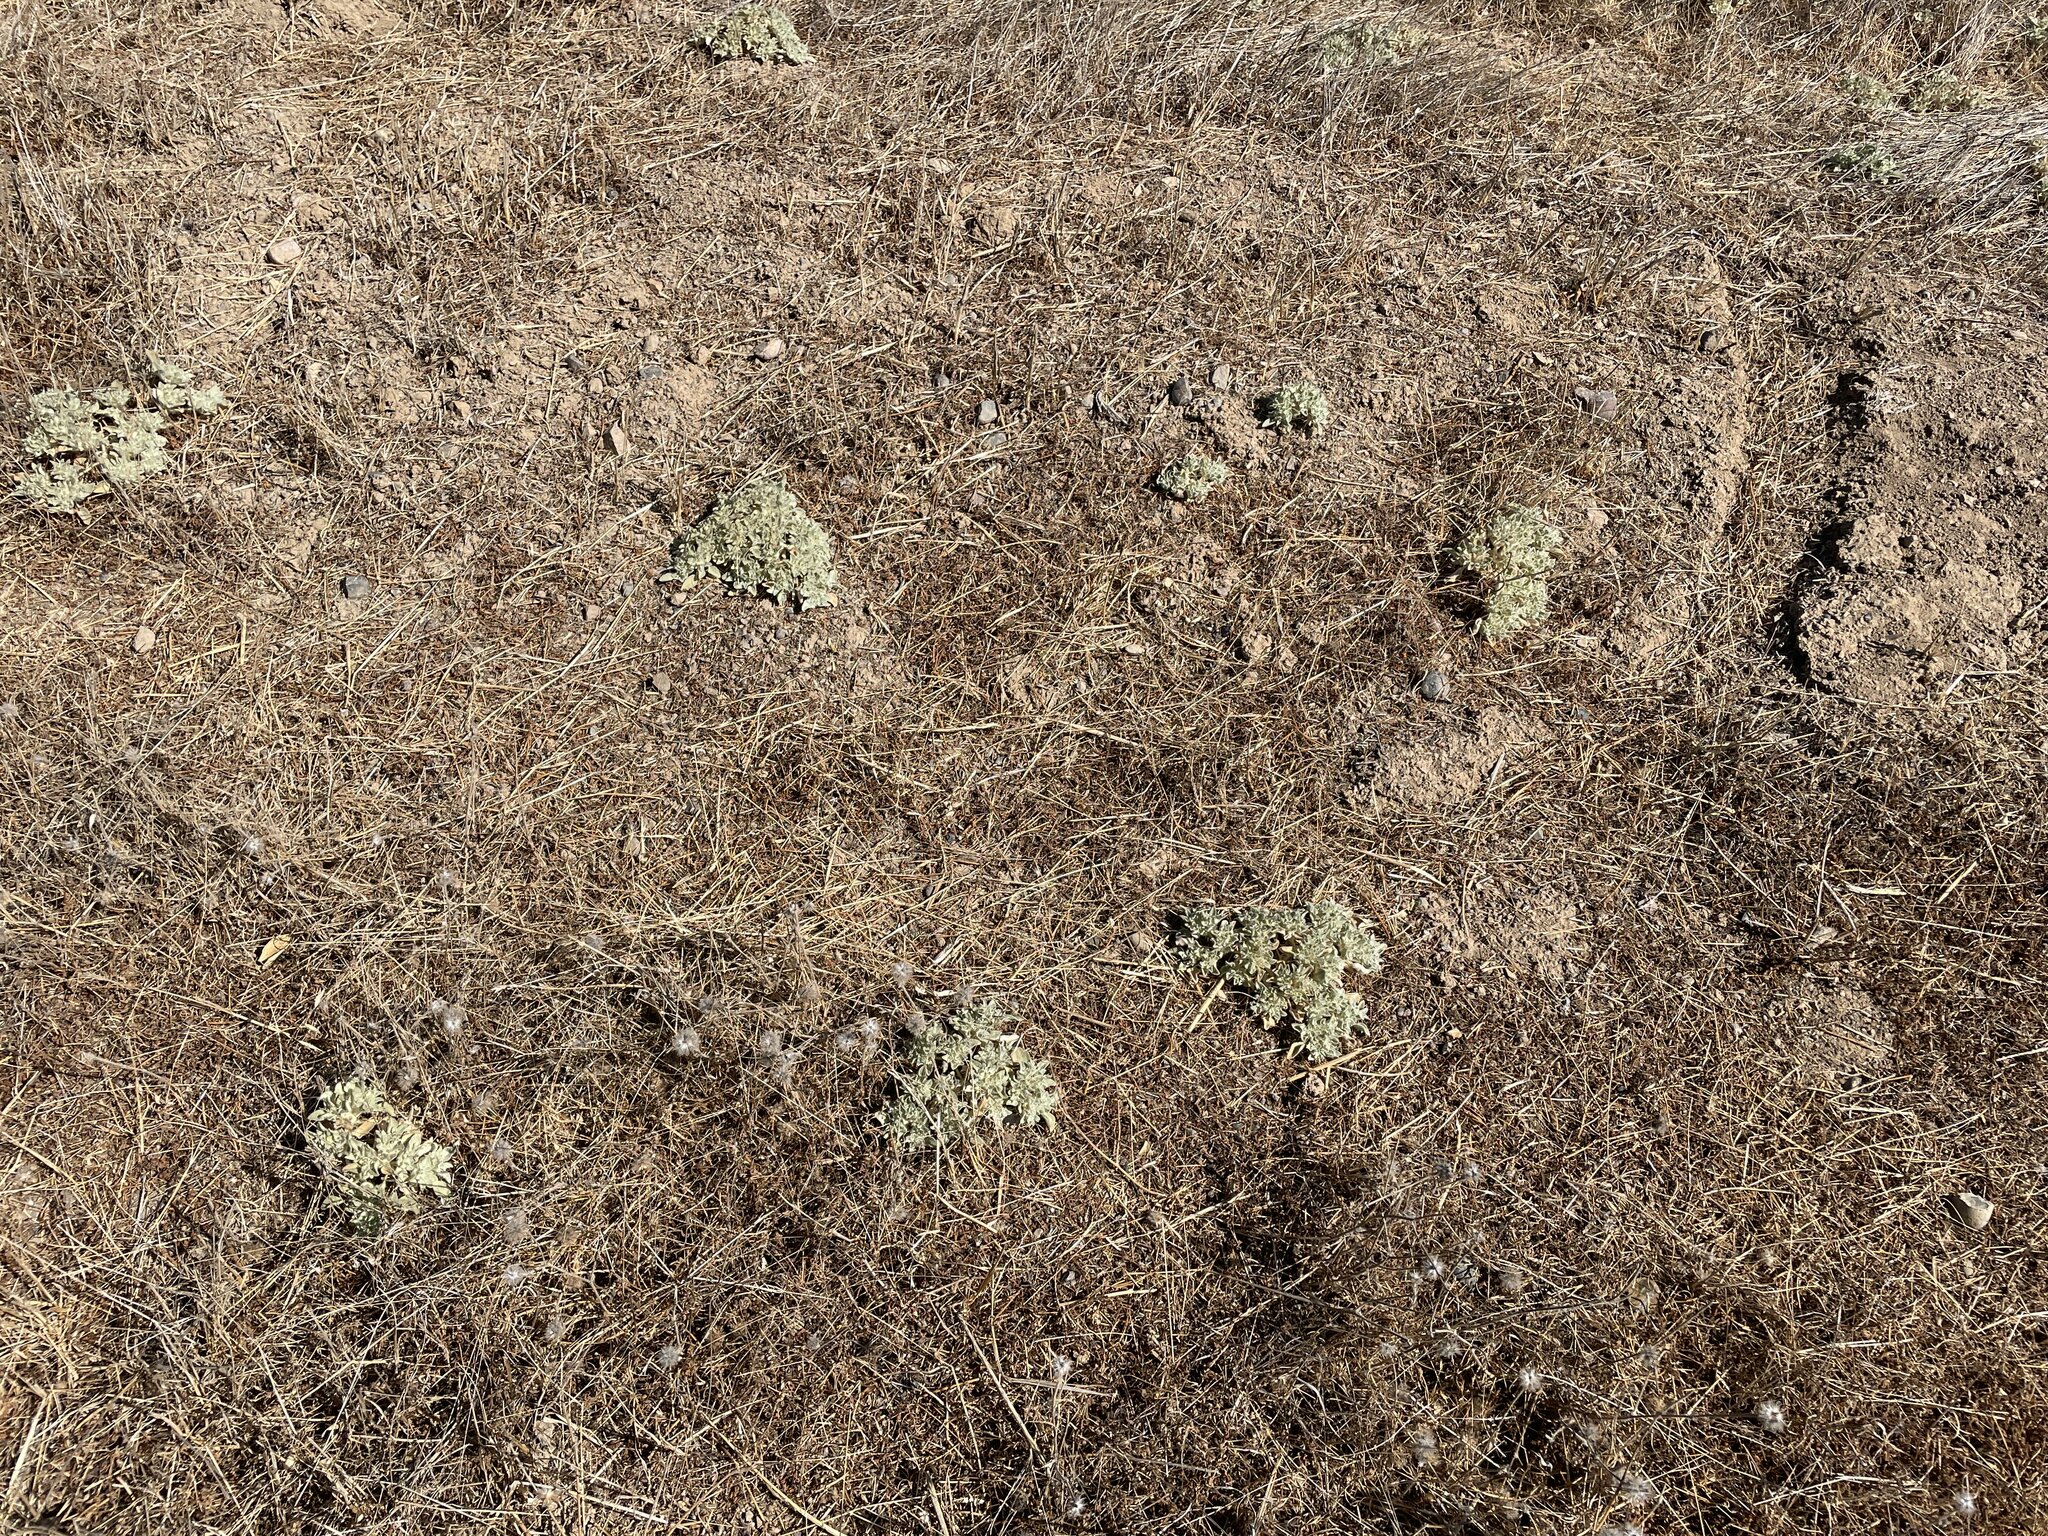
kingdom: Plantae
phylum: Tracheophyta
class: Magnoliopsida
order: Malpighiales
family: Euphorbiaceae
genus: Croton
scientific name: Croton setiger
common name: Dove weed
